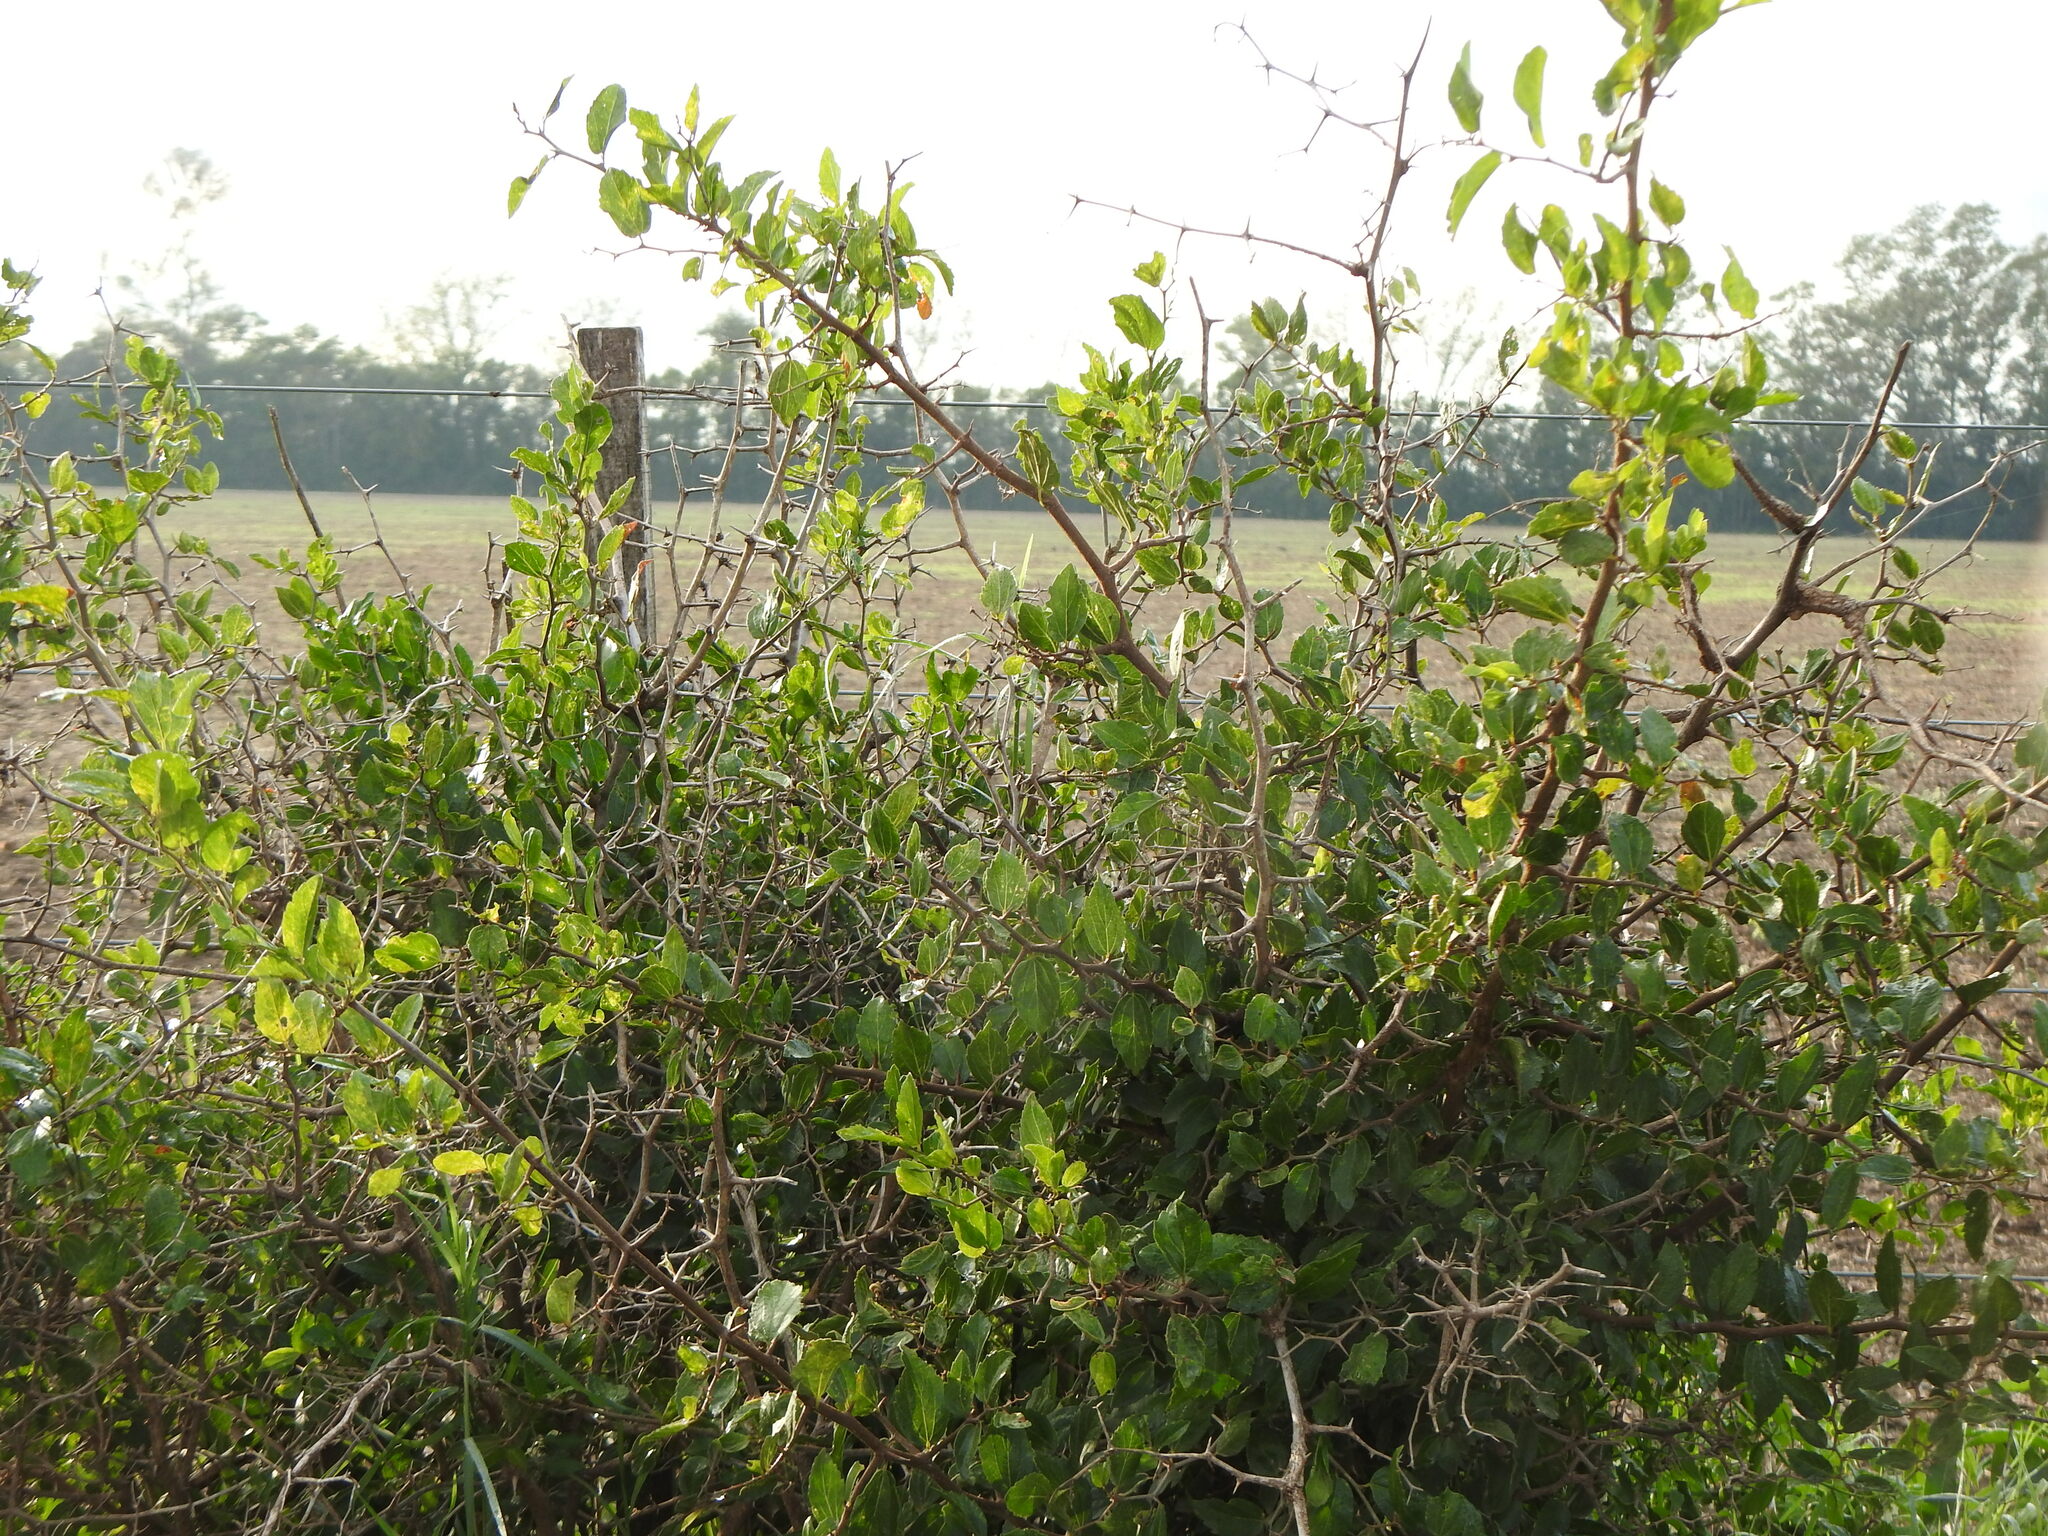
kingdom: Plantae
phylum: Tracheophyta
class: Magnoliopsida
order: Rosales
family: Cannabaceae
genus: Celtis
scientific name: Celtis tala
